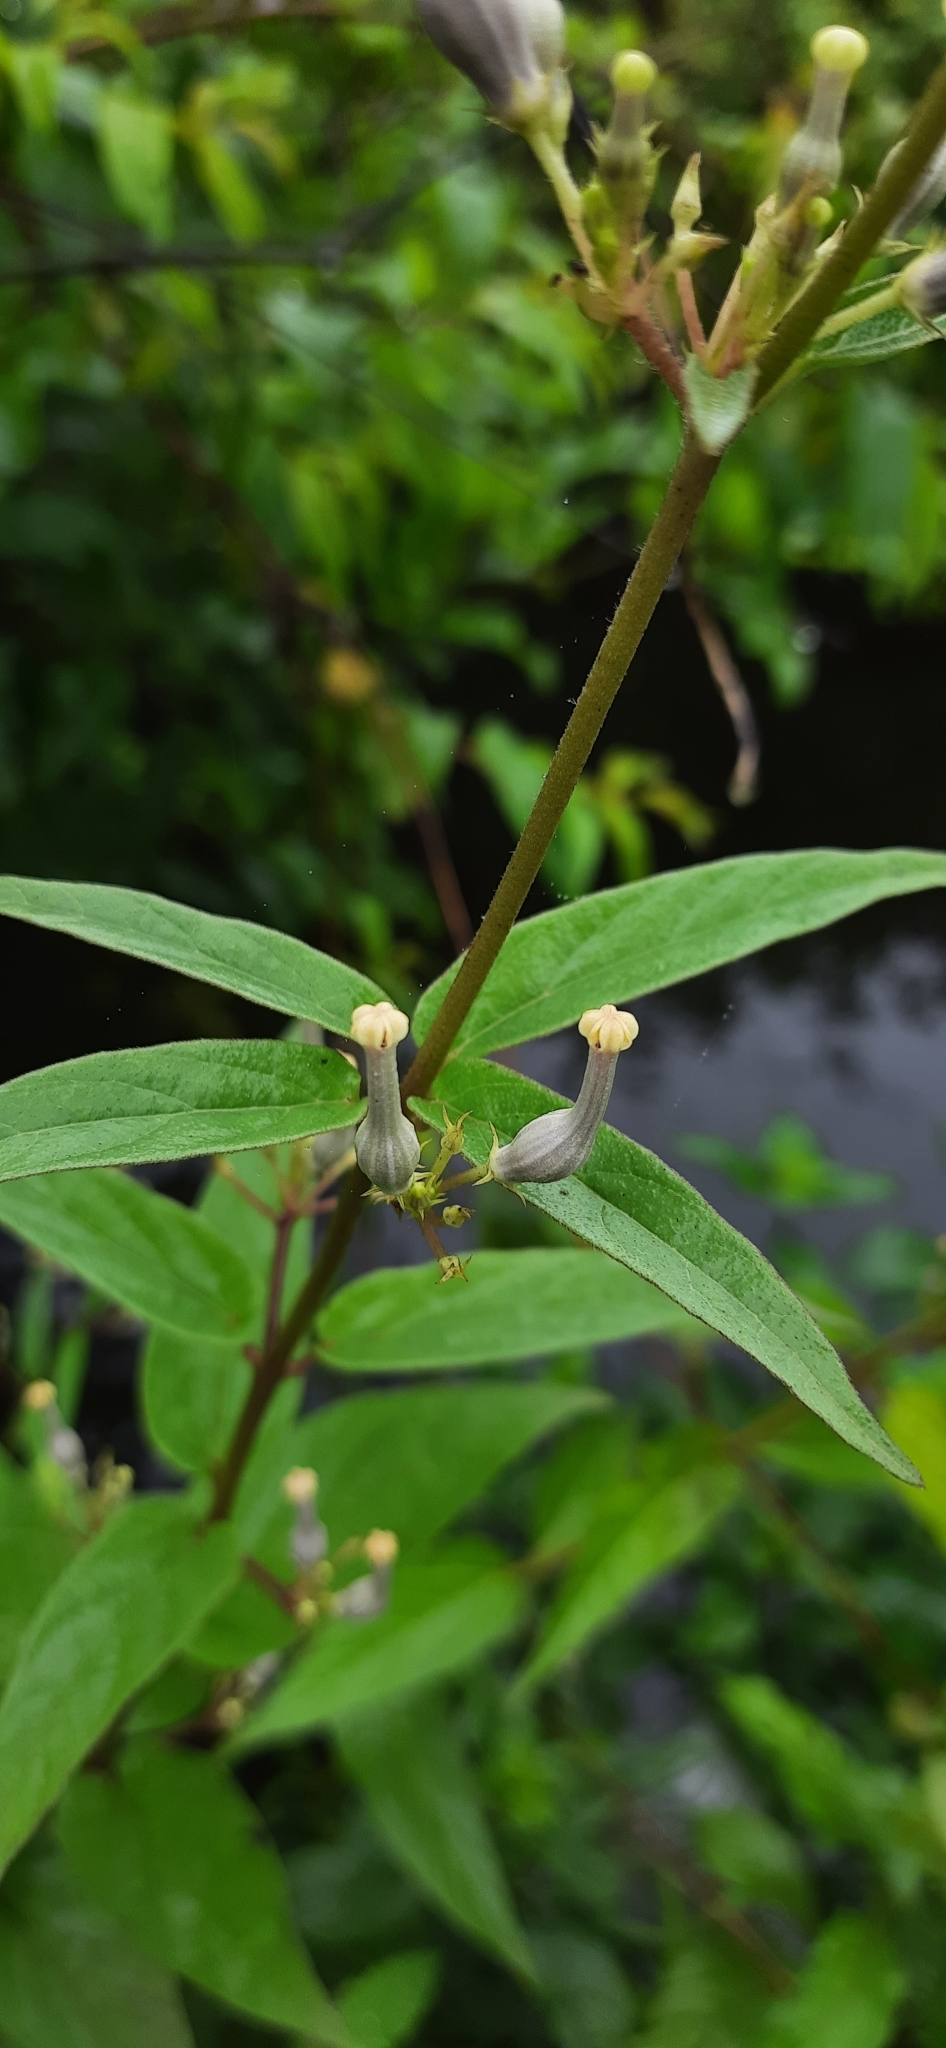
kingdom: Plantae
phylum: Tracheophyta
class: Magnoliopsida
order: Gentianales
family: Apocynaceae
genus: Ceropegia
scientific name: Ceropegia lawii
